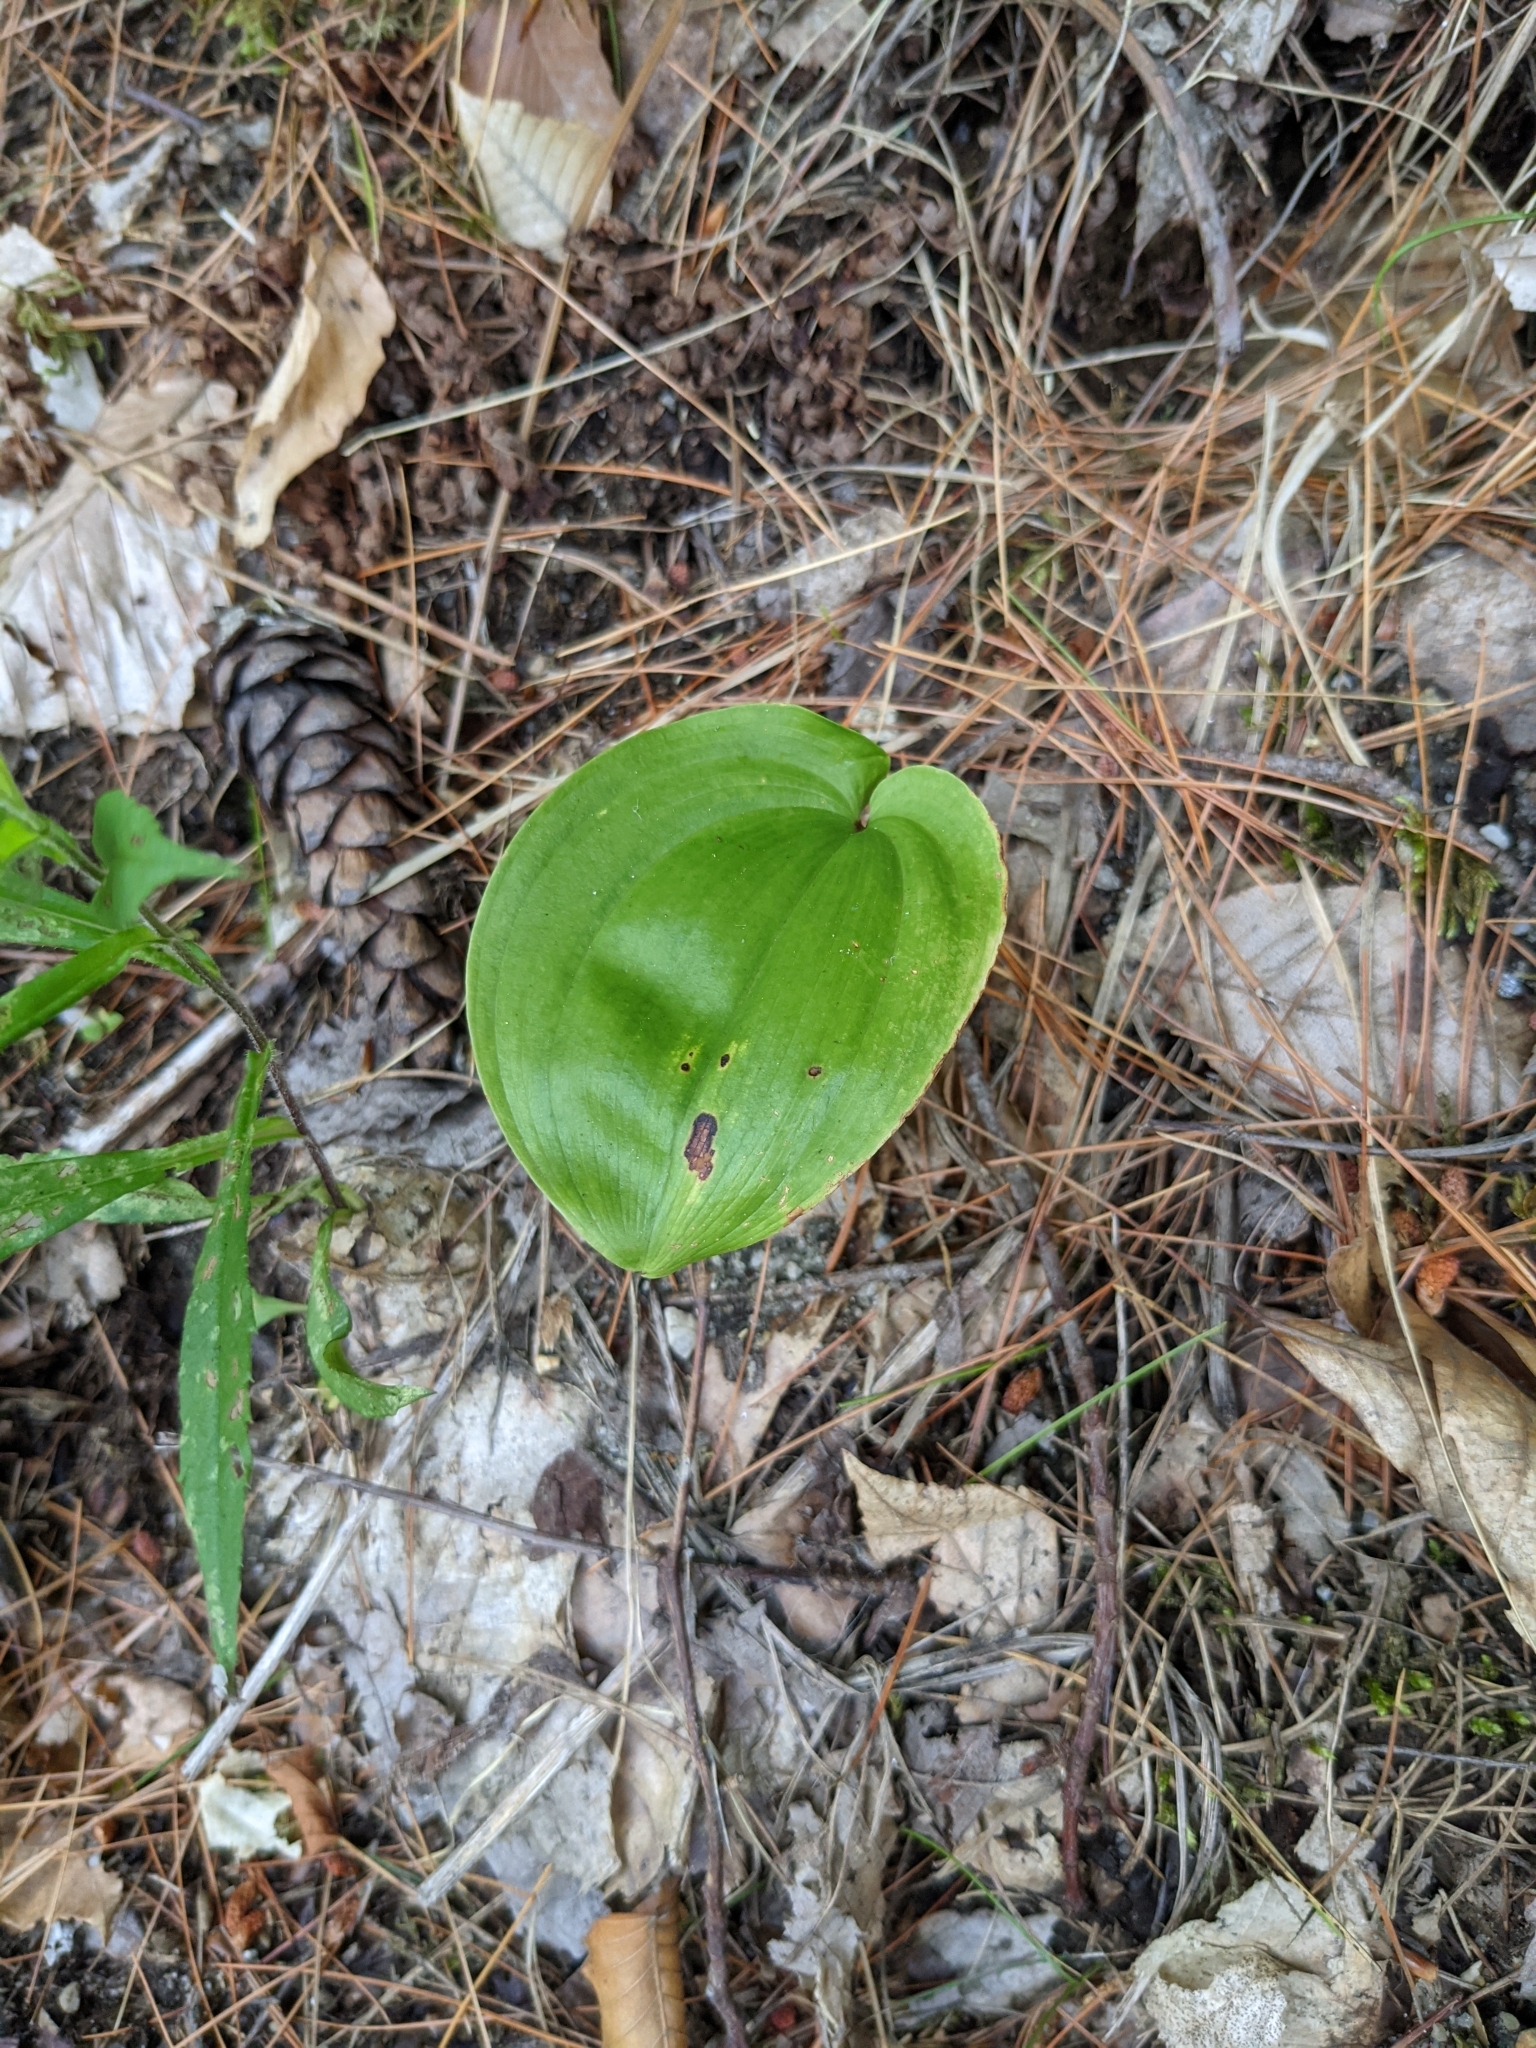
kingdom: Plantae
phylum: Tracheophyta
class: Liliopsida
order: Asparagales
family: Asparagaceae
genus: Maianthemum
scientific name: Maianthemum canadense
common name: False lily-of-the-valley
